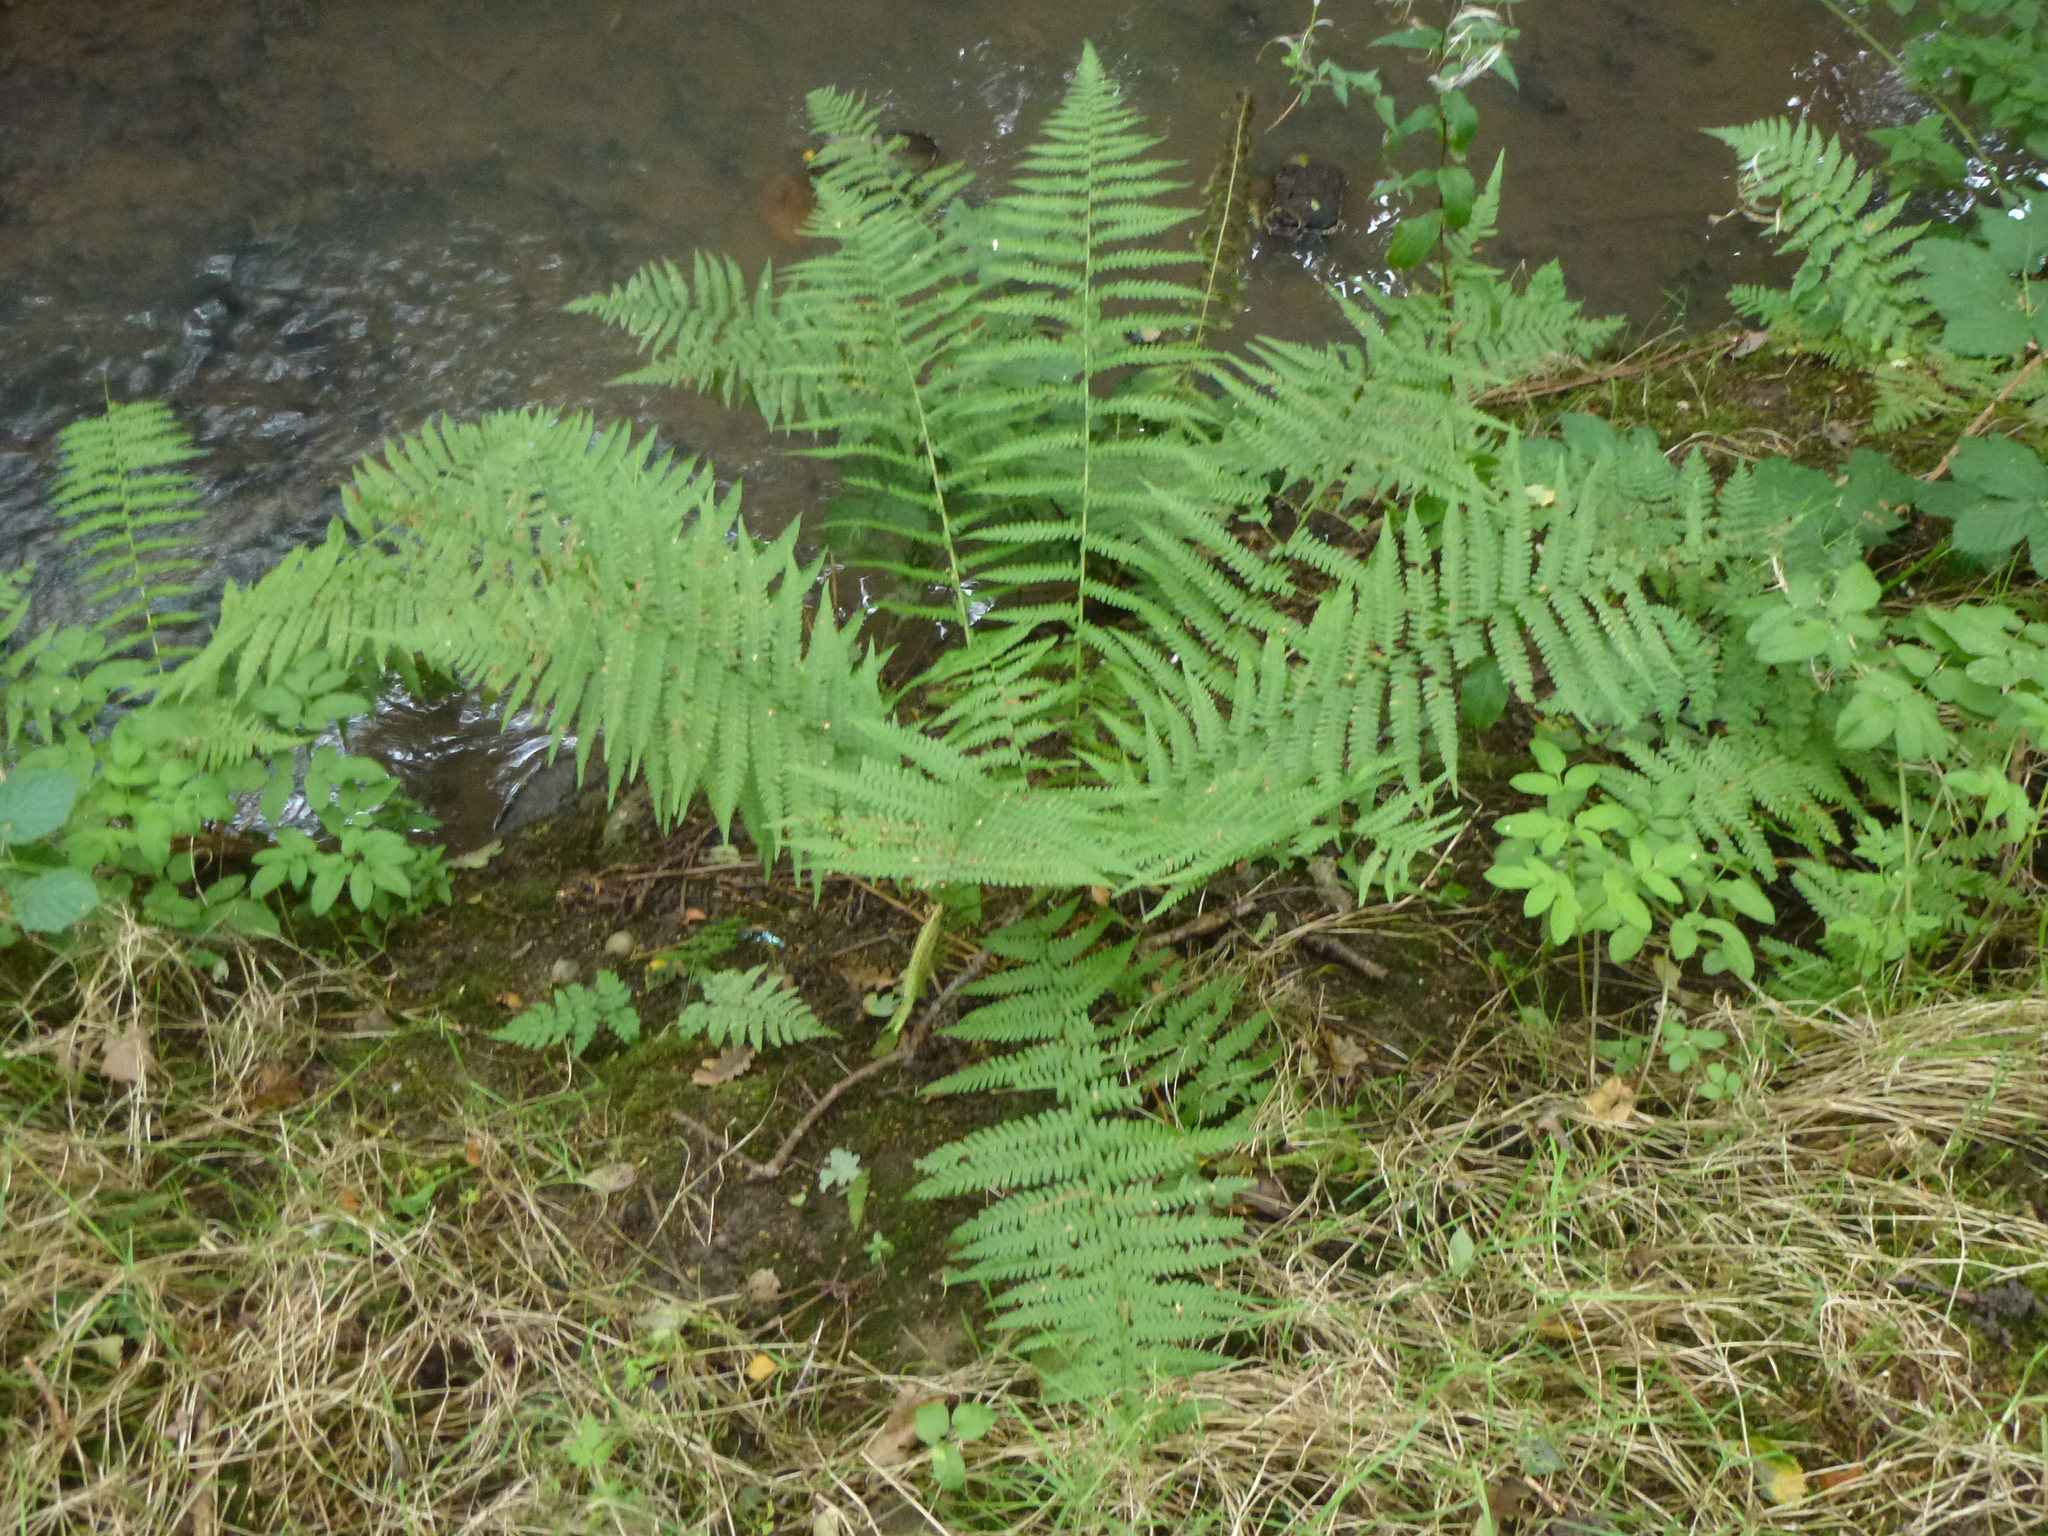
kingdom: Plantae
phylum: Tracheophyta
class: Polypodiopsida
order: Polypodiales
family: Dryopteridaceae
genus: Dryopteris
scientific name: Dryopteris filix-mas
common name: Male fern
